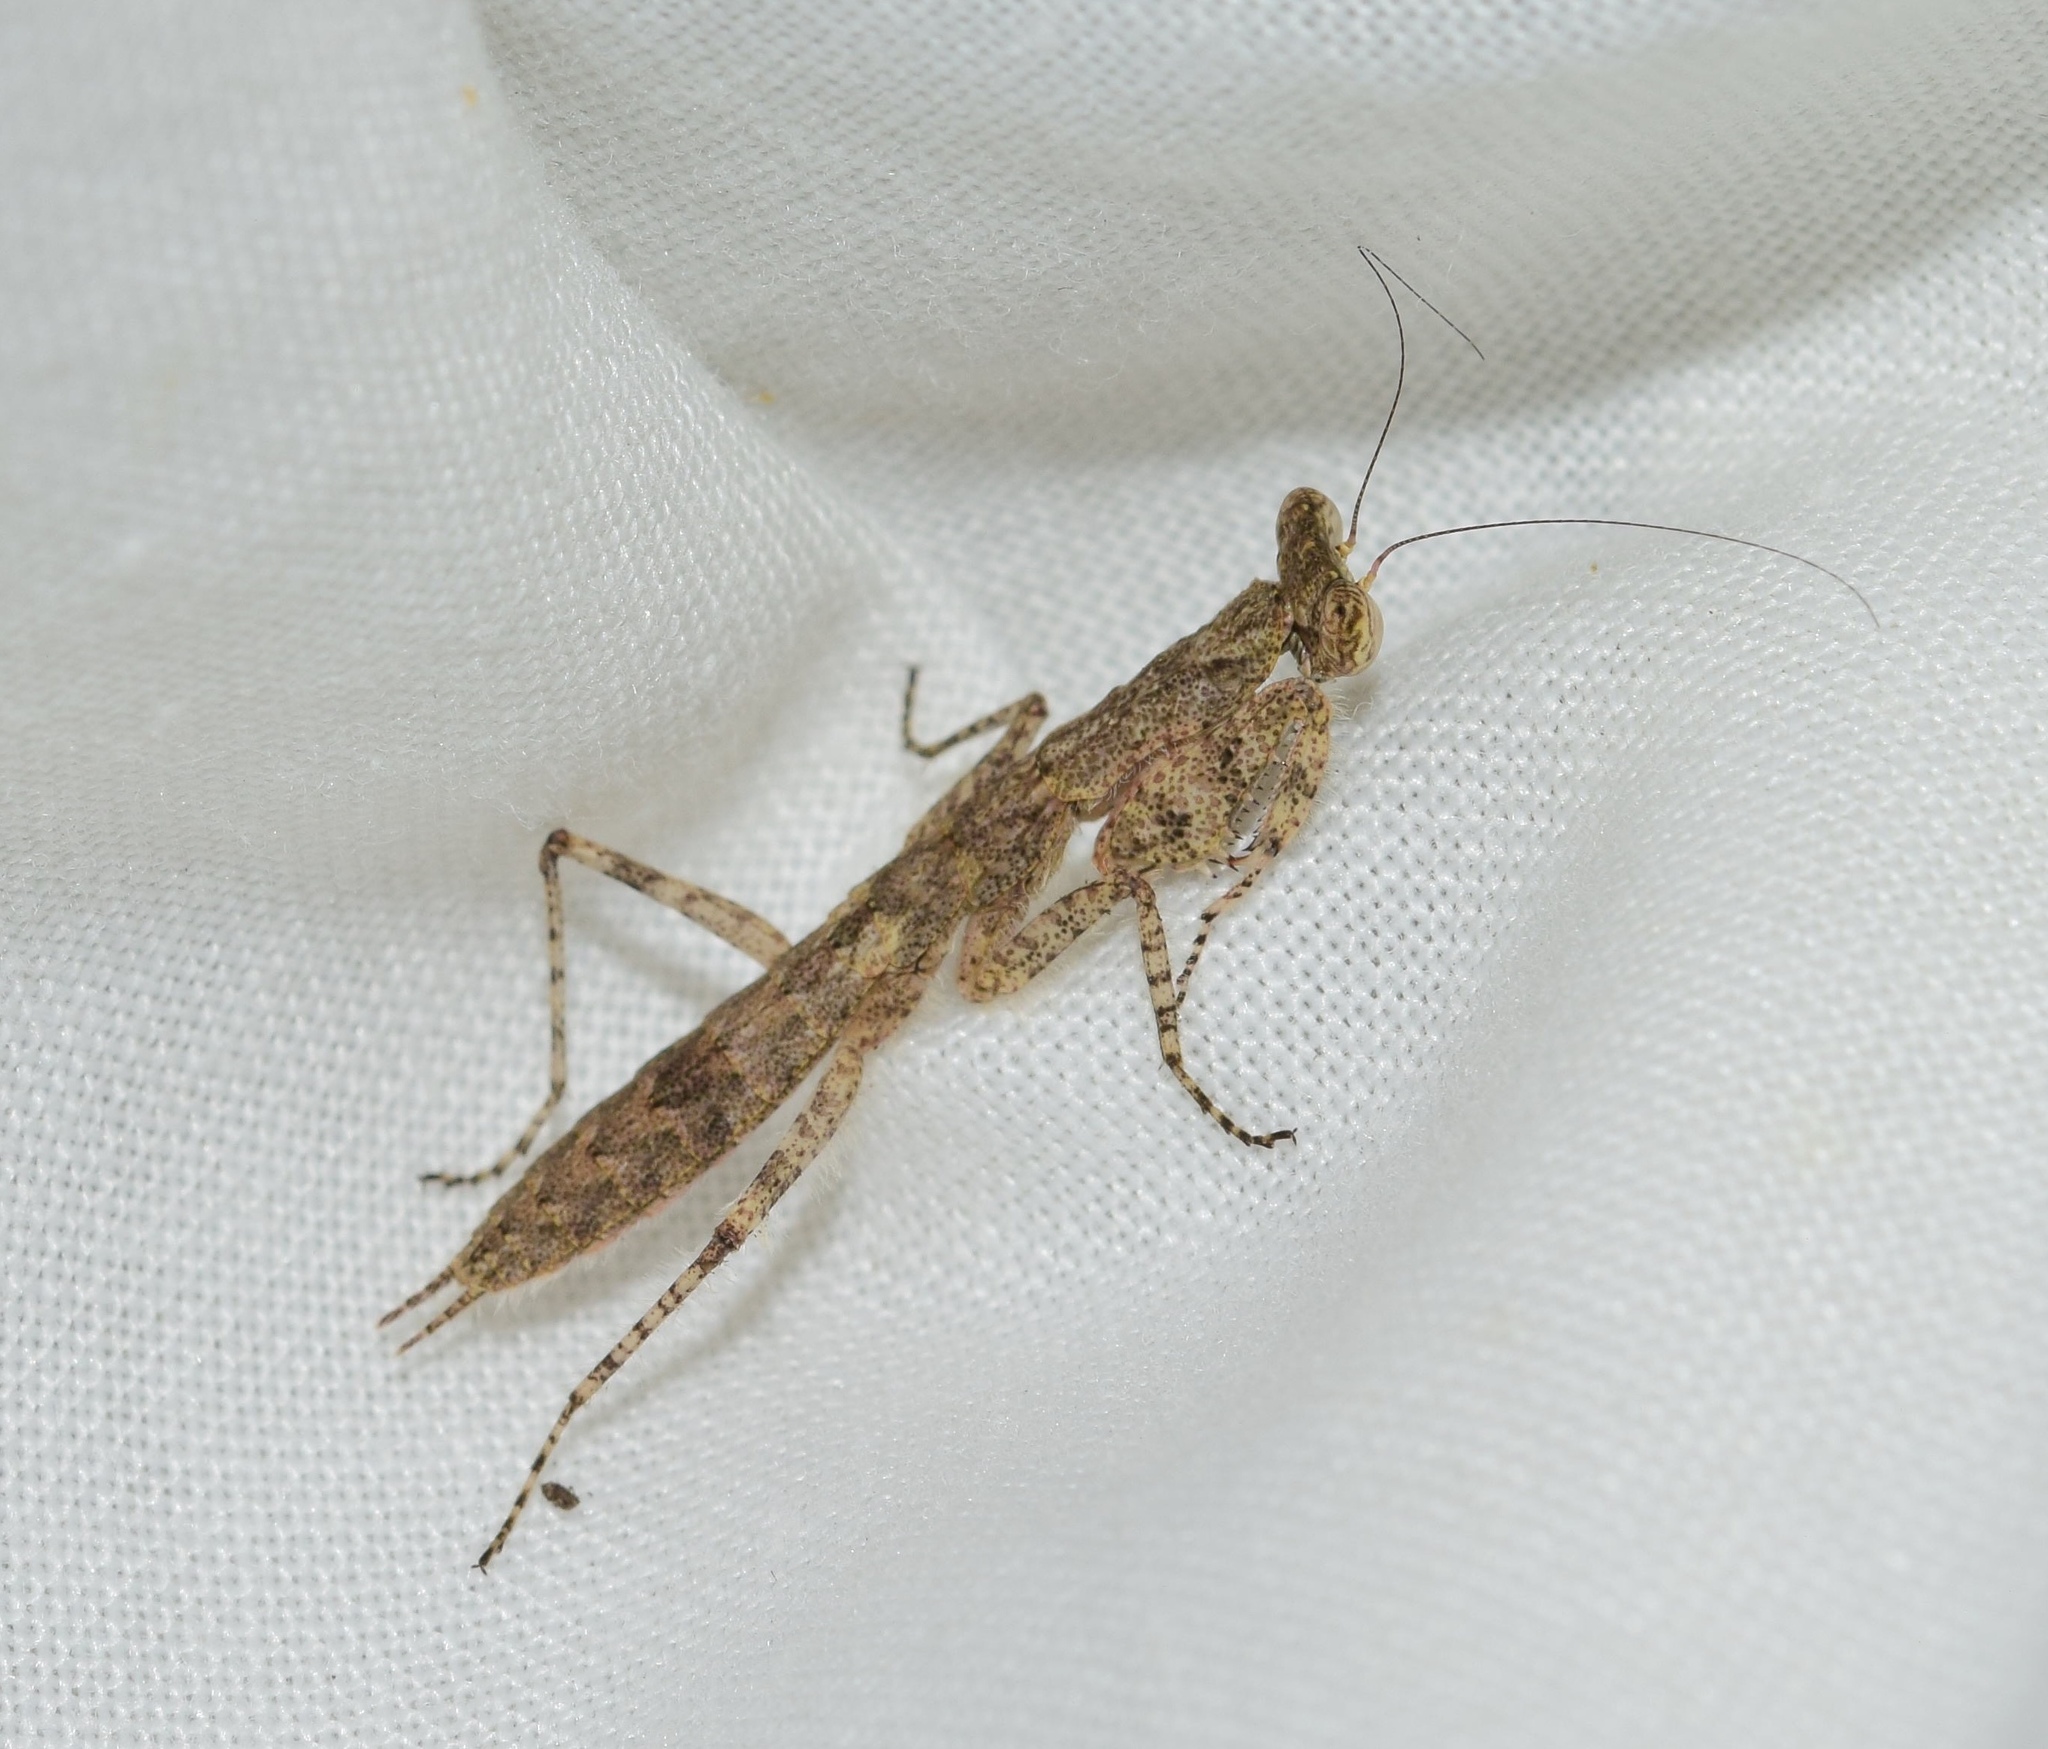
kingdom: Animalia
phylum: Arthropoda
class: Insecta
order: Mantodea
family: Eremiaphilidae
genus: Tarachodes
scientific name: Tarachodes sanctus
